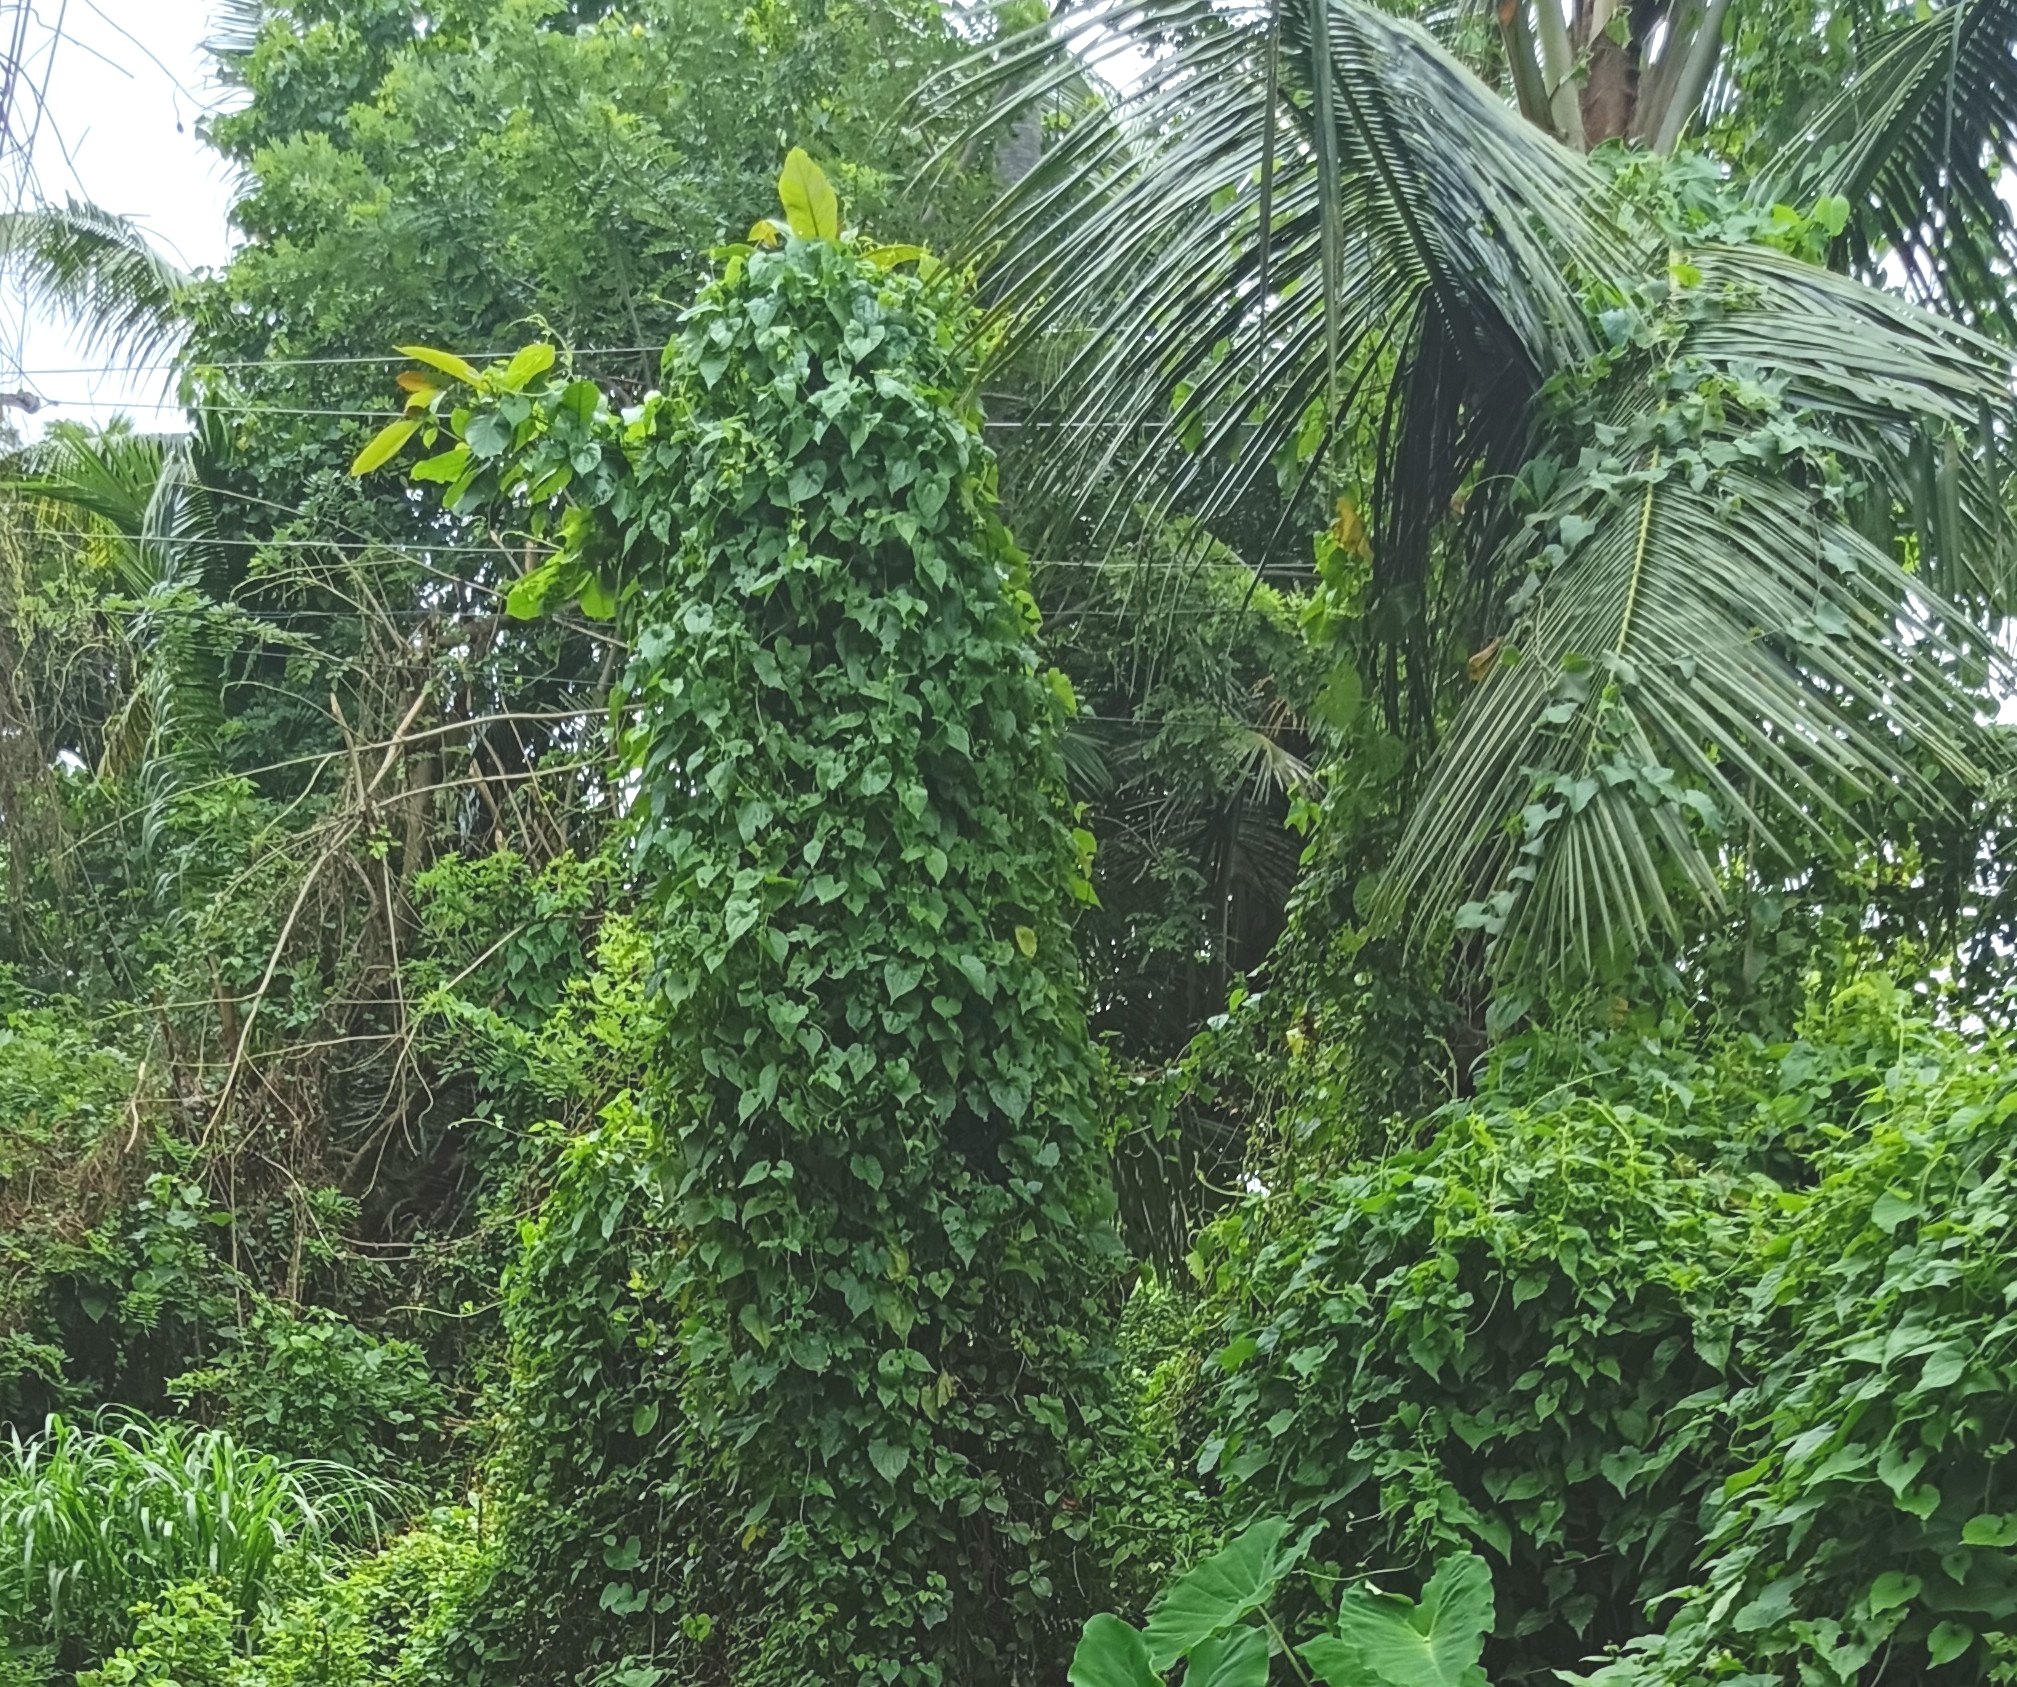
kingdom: Plantae
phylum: Tracheophyta
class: Magnoliopsida
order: Asterales
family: Asteraceae
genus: Mikania
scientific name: Mikania micrantha
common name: Mile-a-minute
